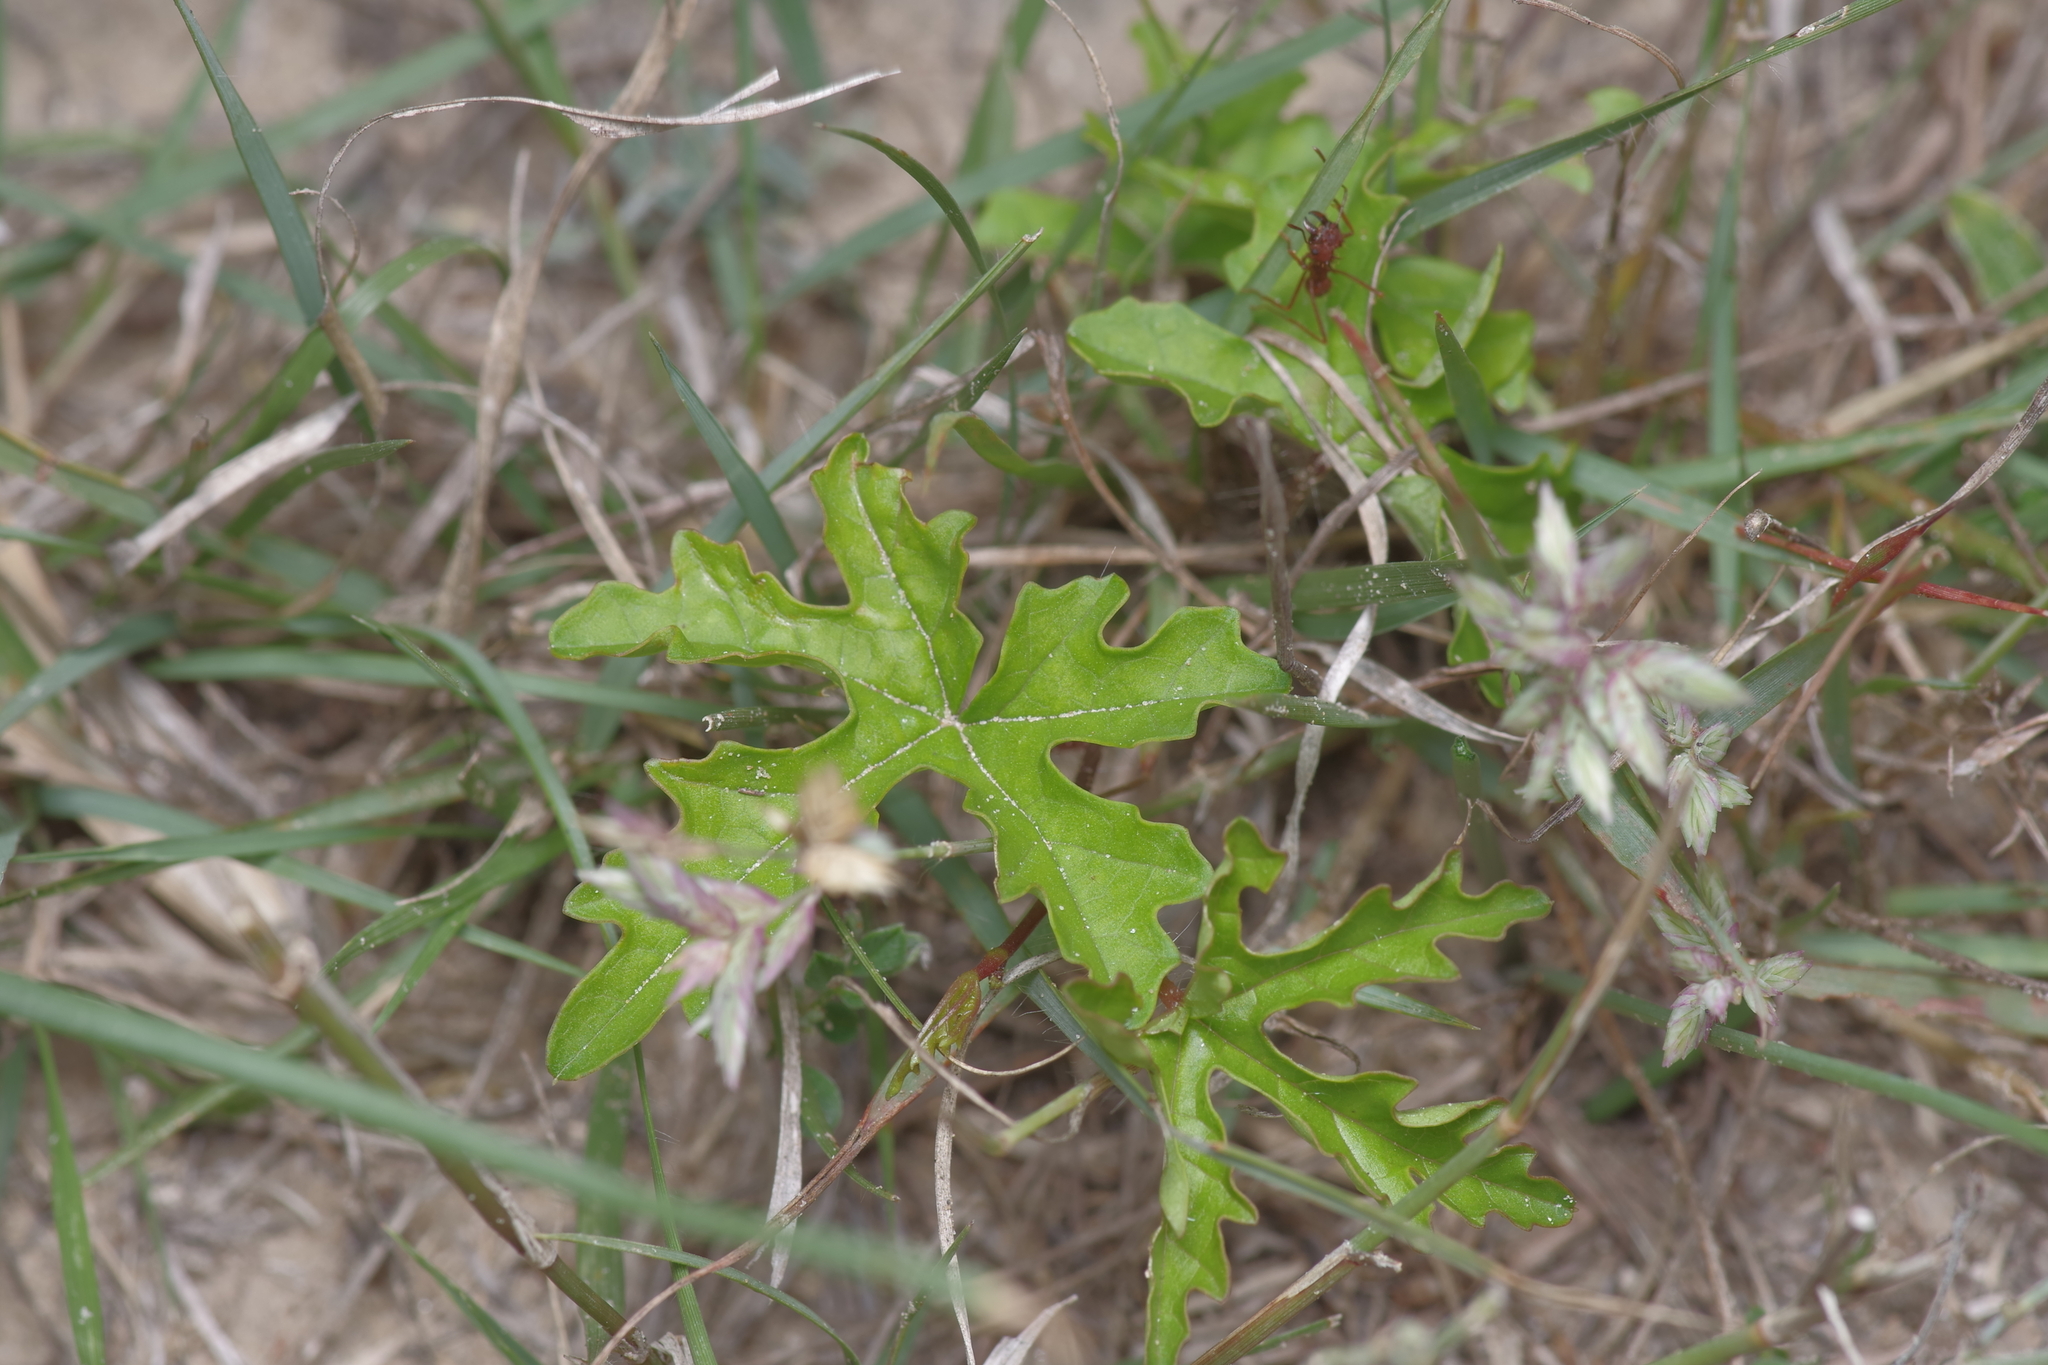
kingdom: Plantae
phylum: Tracheophyta
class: Magnoliopsida
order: Solanales
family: Convolvulaceae
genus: Distimake
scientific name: Distimake dissectus
